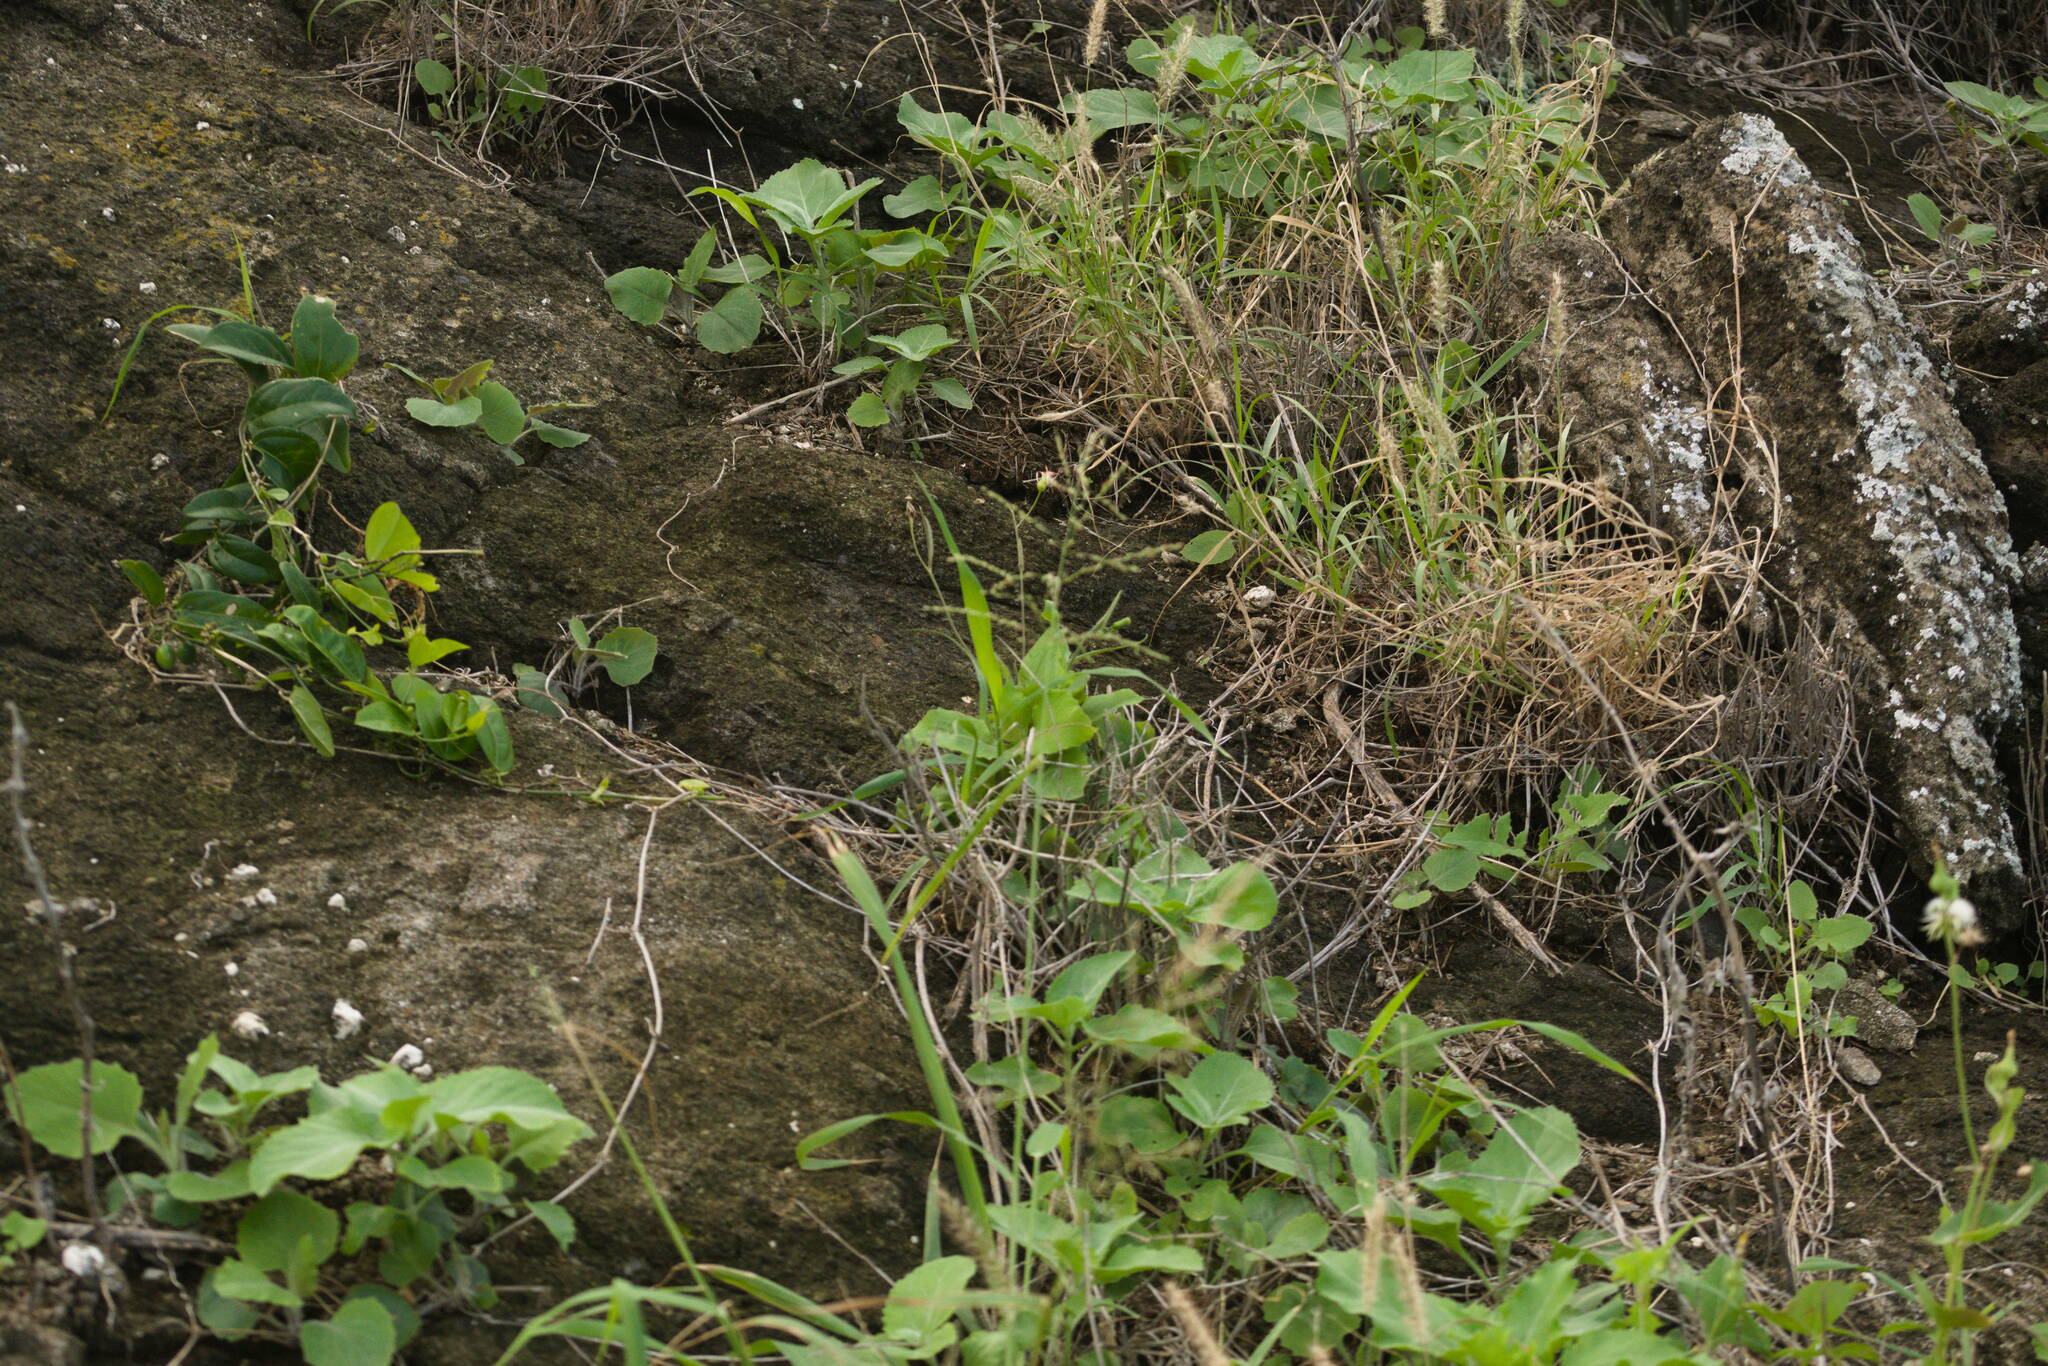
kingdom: Plantae
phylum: Tracheophyta
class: Liliopsida
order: Poales
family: Poaceae
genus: Megathyrsus
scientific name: Megathyrsus maximus
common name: Guineagrass
